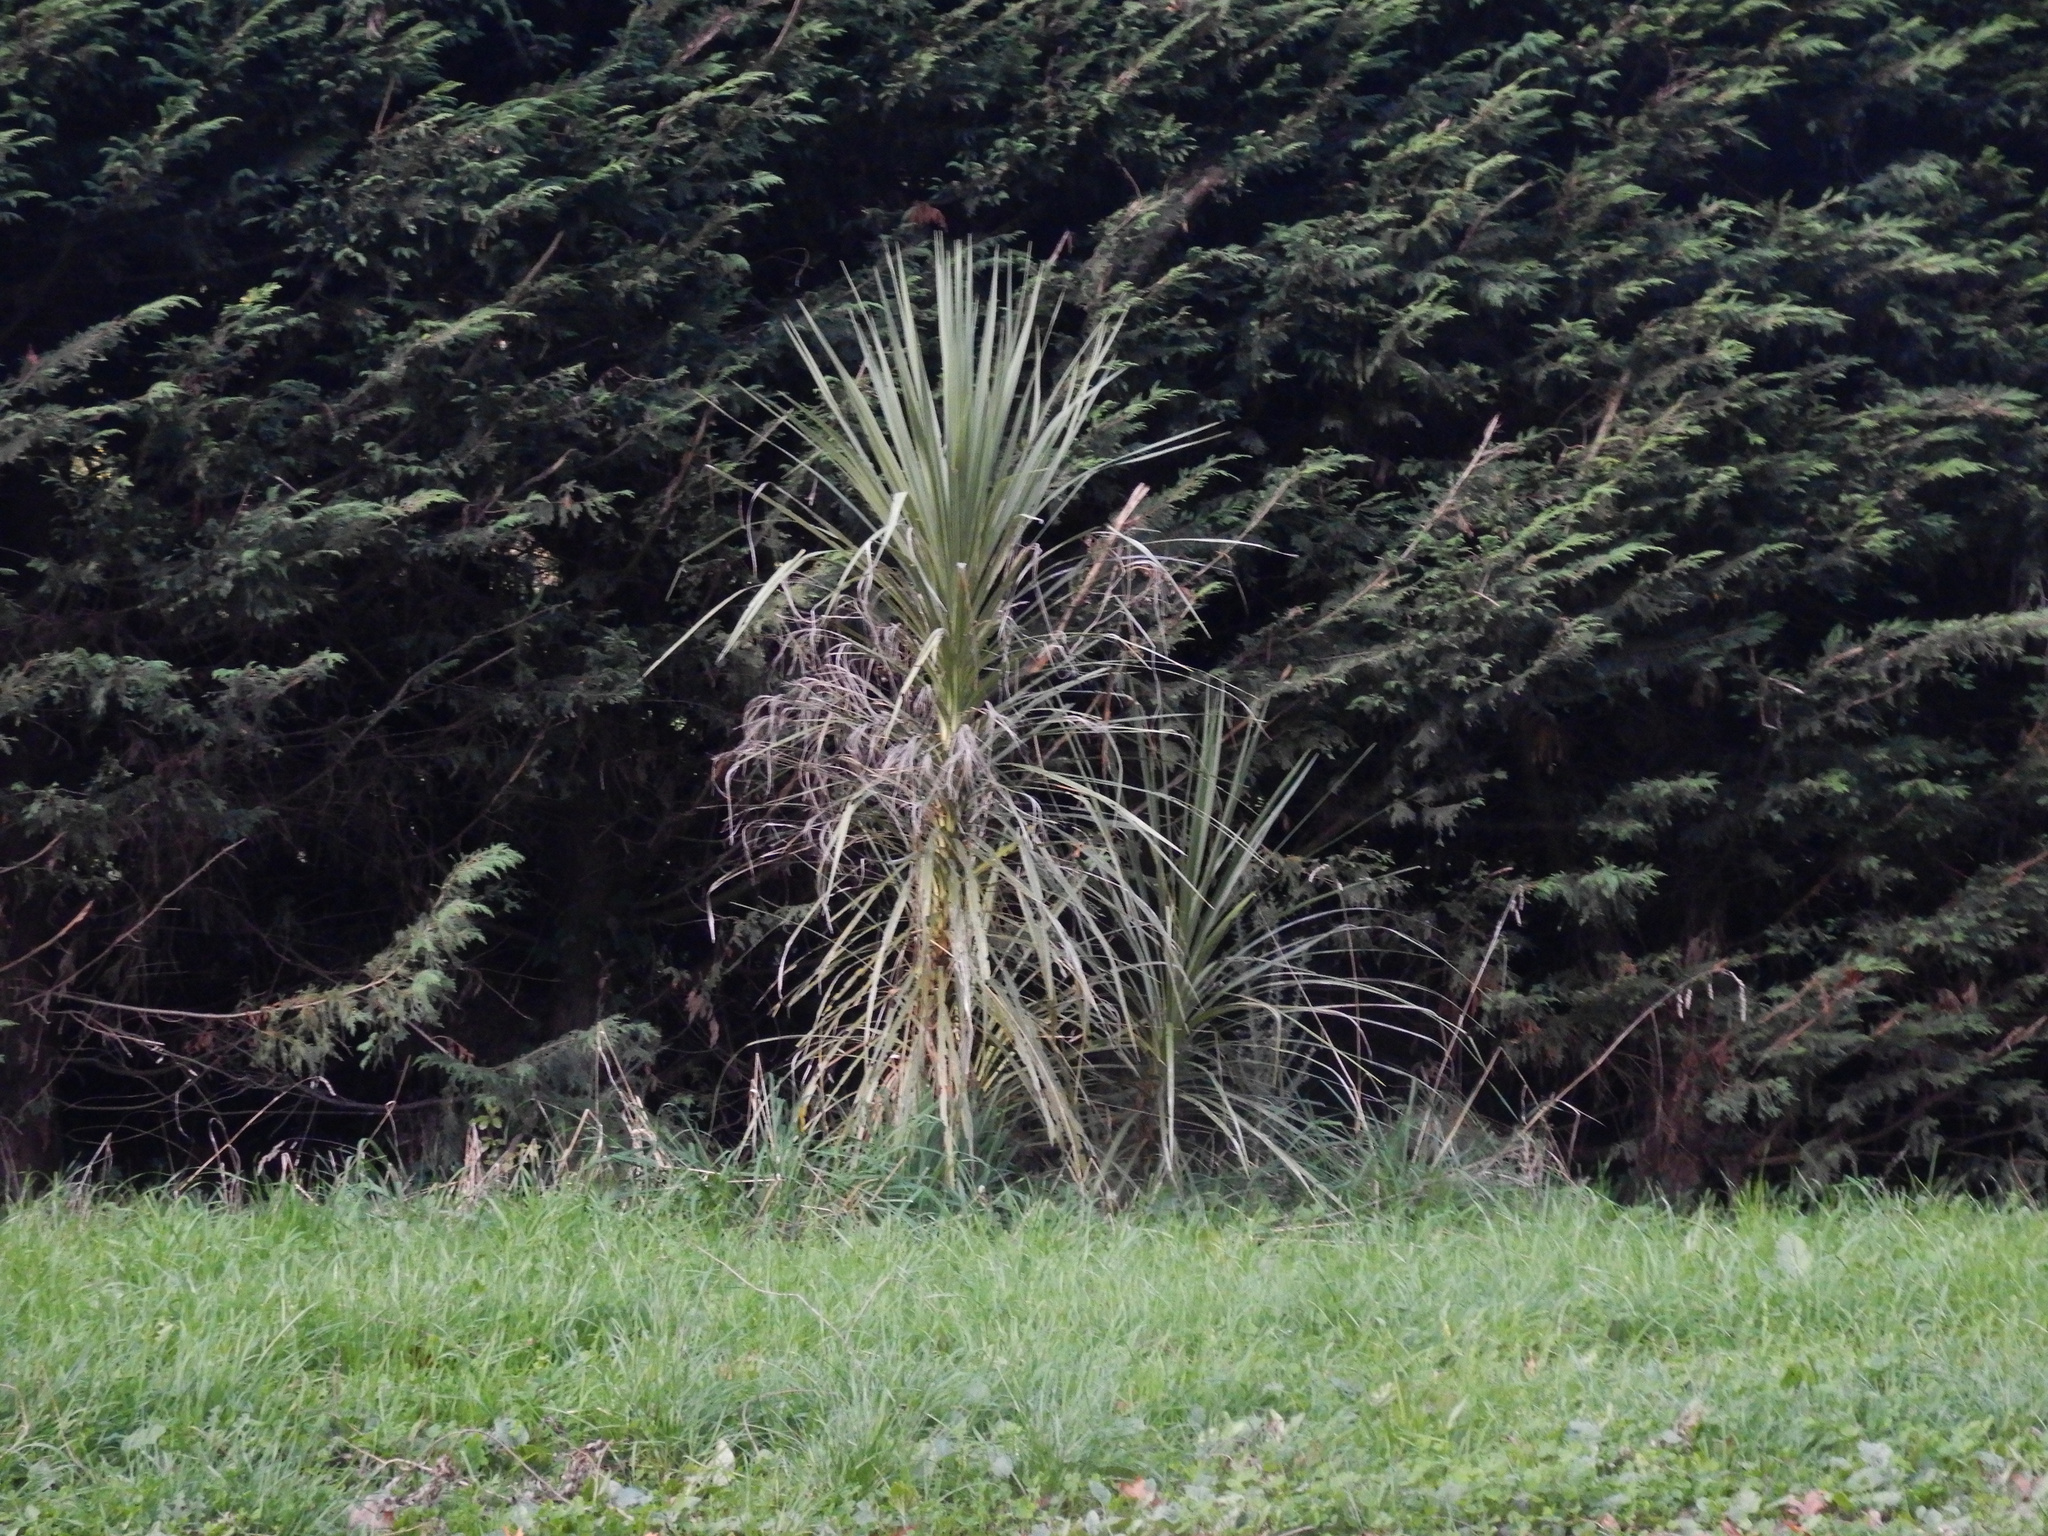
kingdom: Plantae
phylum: Tracheophyta
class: Liliopsida
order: Asparagales
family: Asparagaceae
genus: Cordyline
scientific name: Cordyline australis
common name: Cabbage-palm
